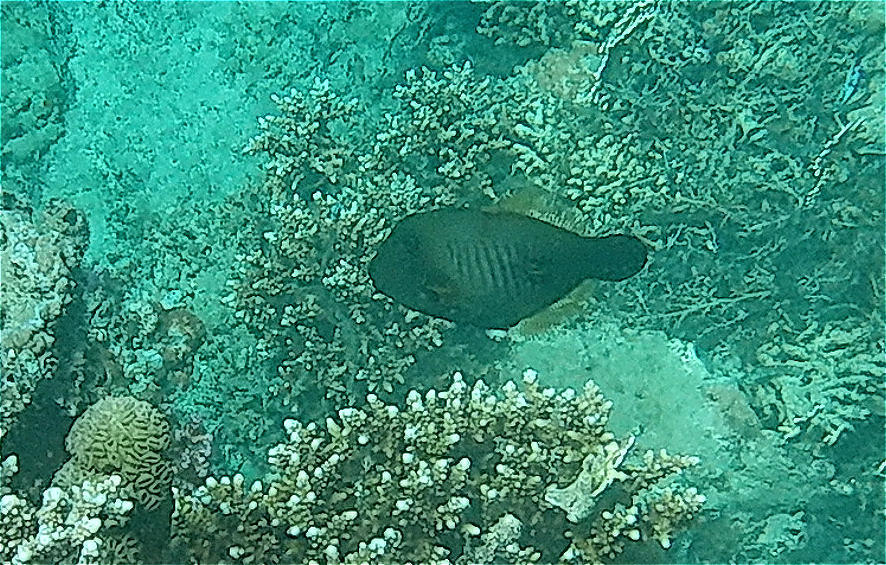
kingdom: Animalia
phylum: Chordata
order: Tetraodontiformes
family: Monacanthidae
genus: Amanses
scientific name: Amanses scopas
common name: Broom filefish
